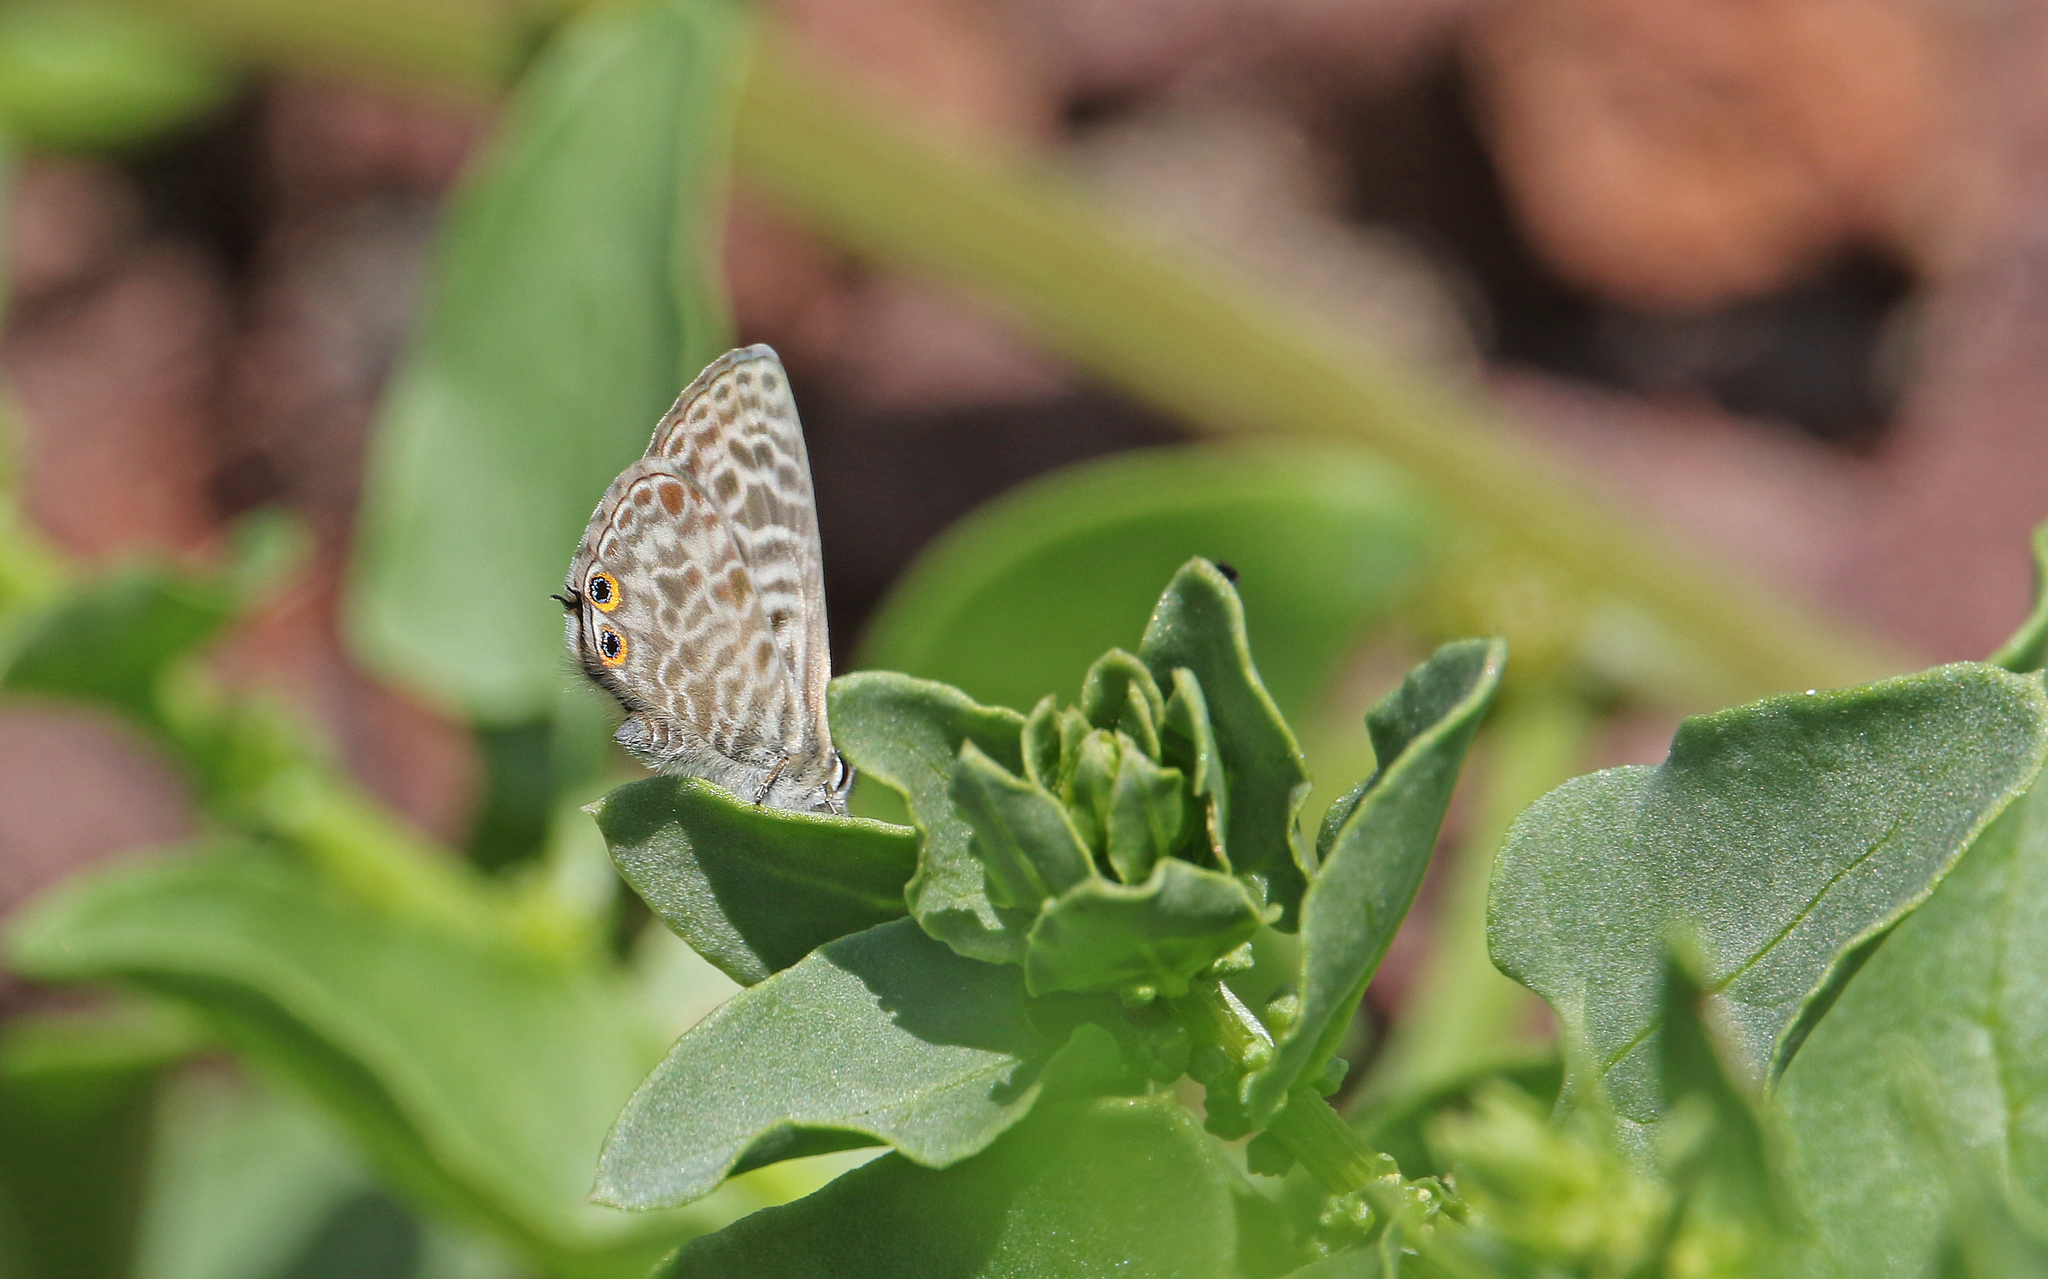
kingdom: Animalia
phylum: Arthropoda
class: Insecta
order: Lepidoptera
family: Lycaenidae
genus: Leptotes
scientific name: Leptotes pirithous
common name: Lang's short-tailed blue
